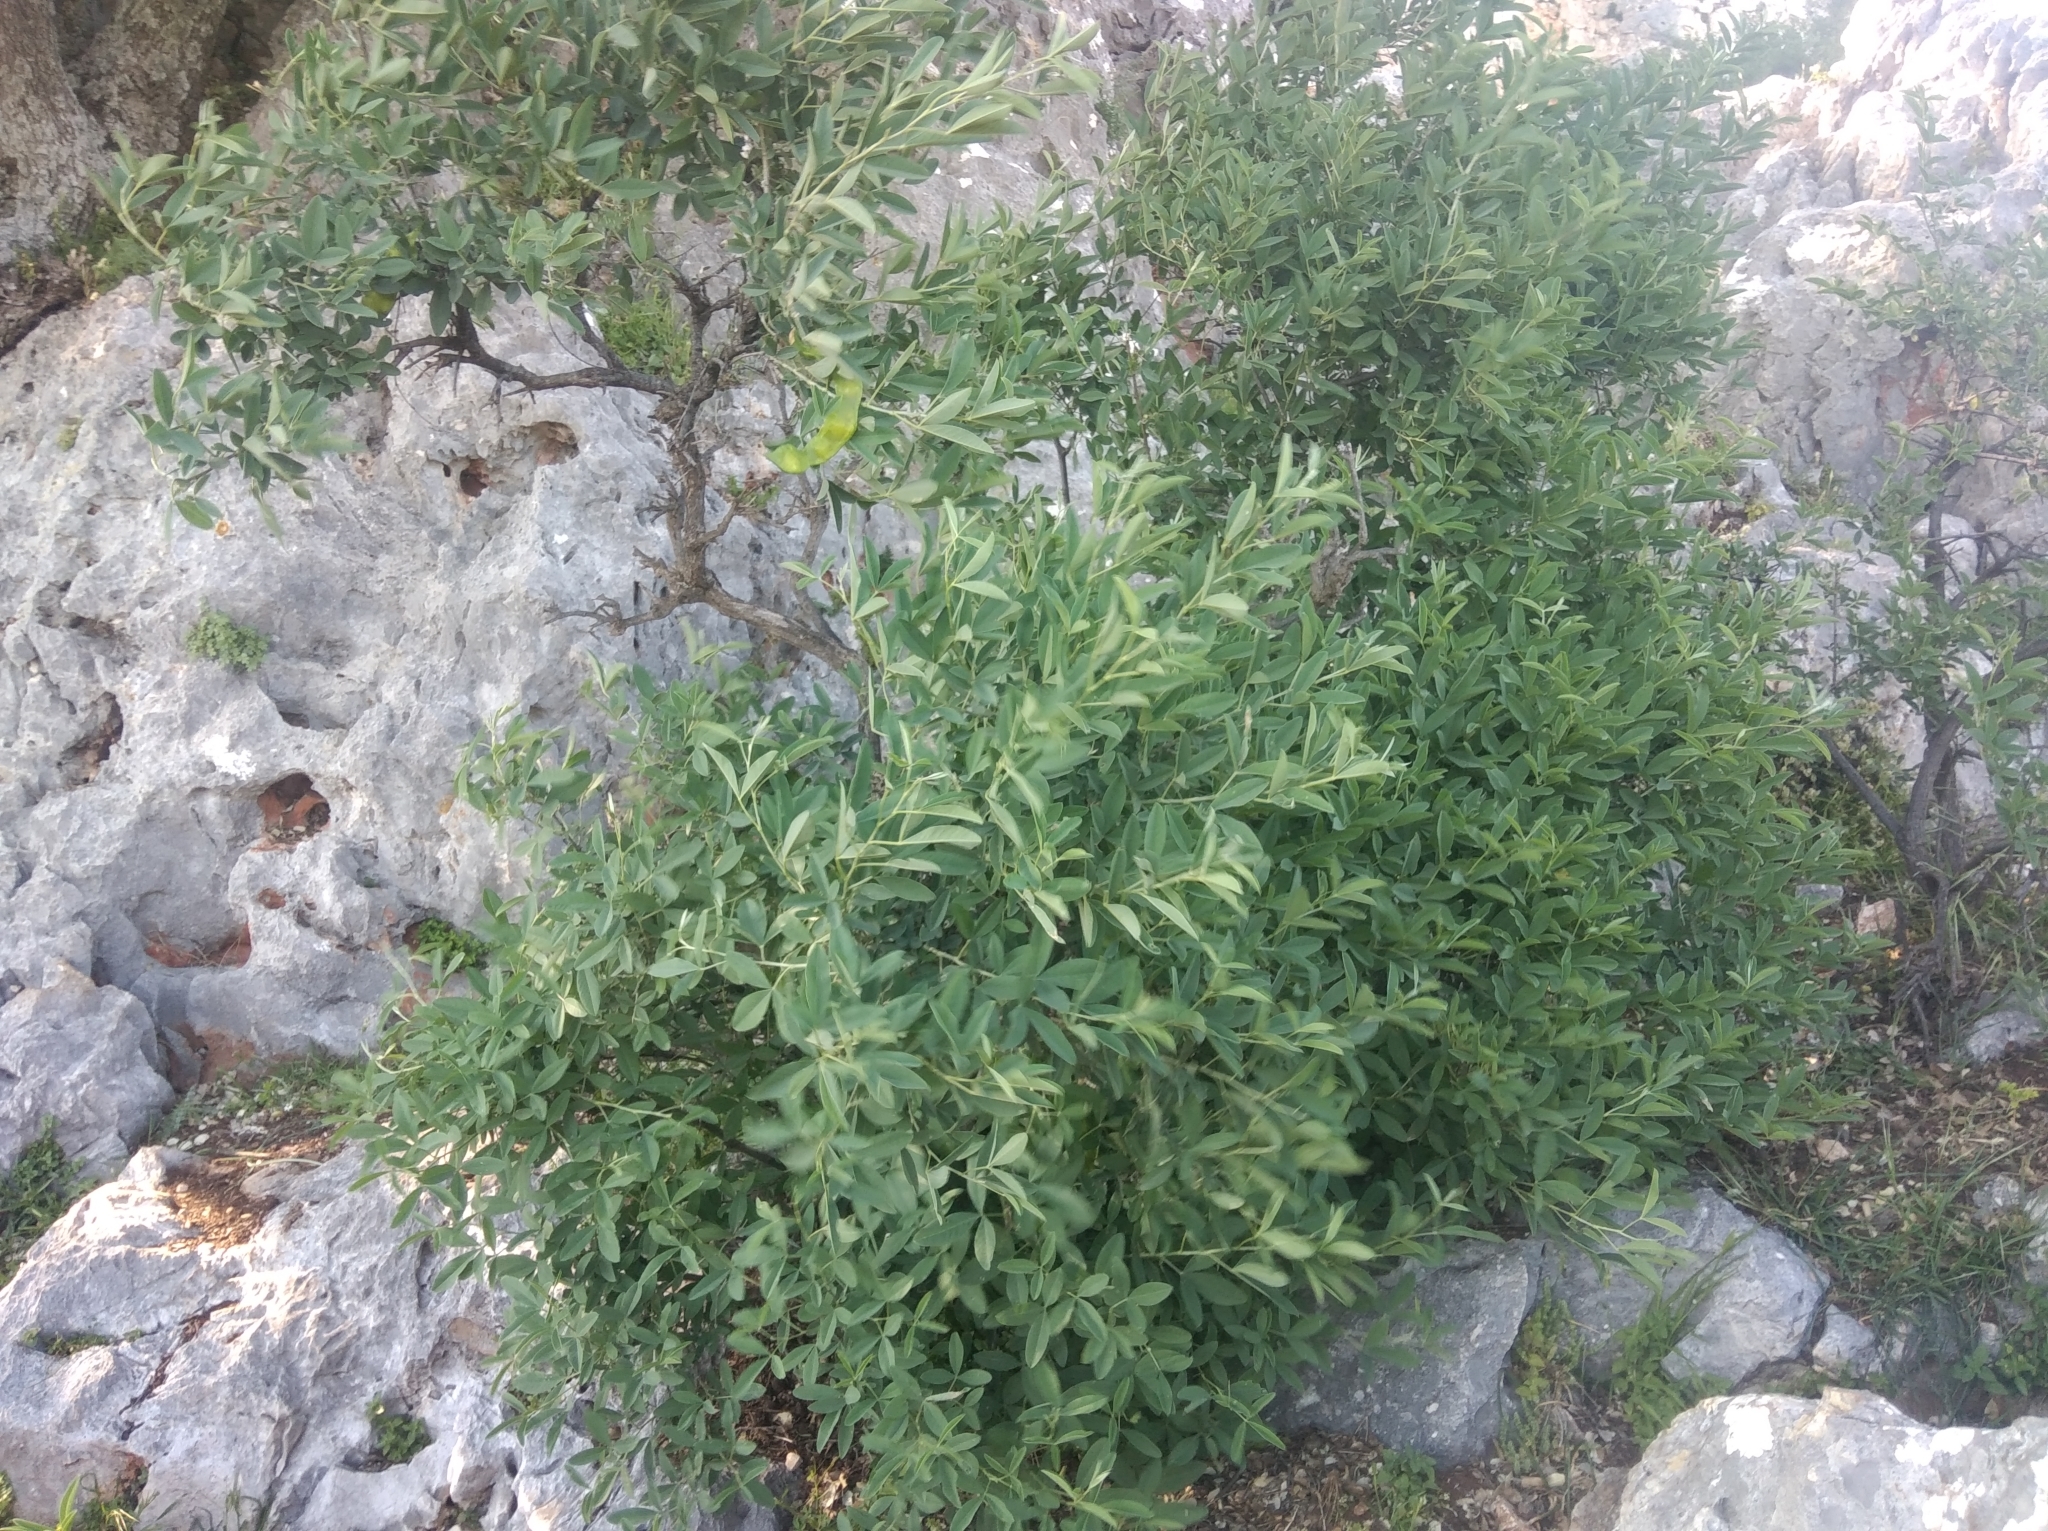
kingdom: Plantae
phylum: Tracheophyta
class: Magnoliopsida
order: Fabales
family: Fabaceae
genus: Anagyris
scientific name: Anagyris foetida
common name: Stinking bean trefoil
